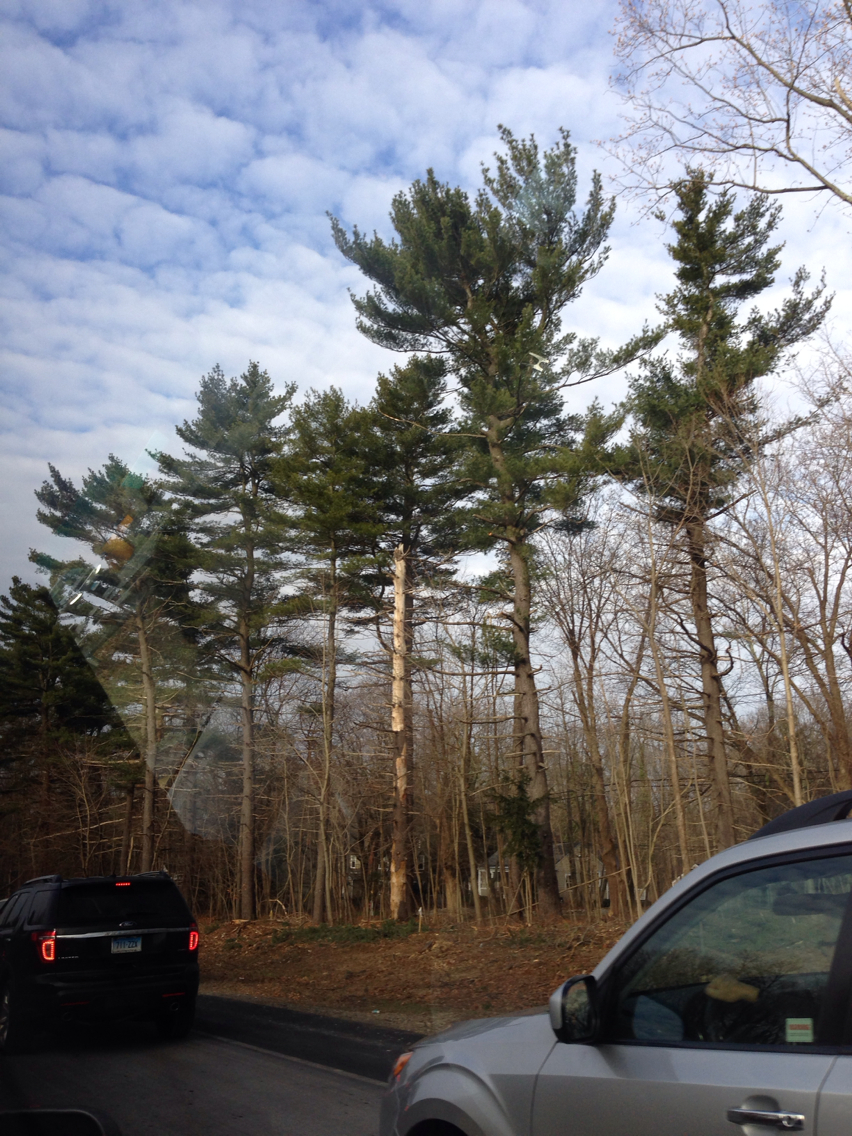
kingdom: Plantae
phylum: Tracheophyta
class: Pinopsida
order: Pinales
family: Pinaceae
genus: Pinus
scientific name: Pinus strobus
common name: Weymouth pine
